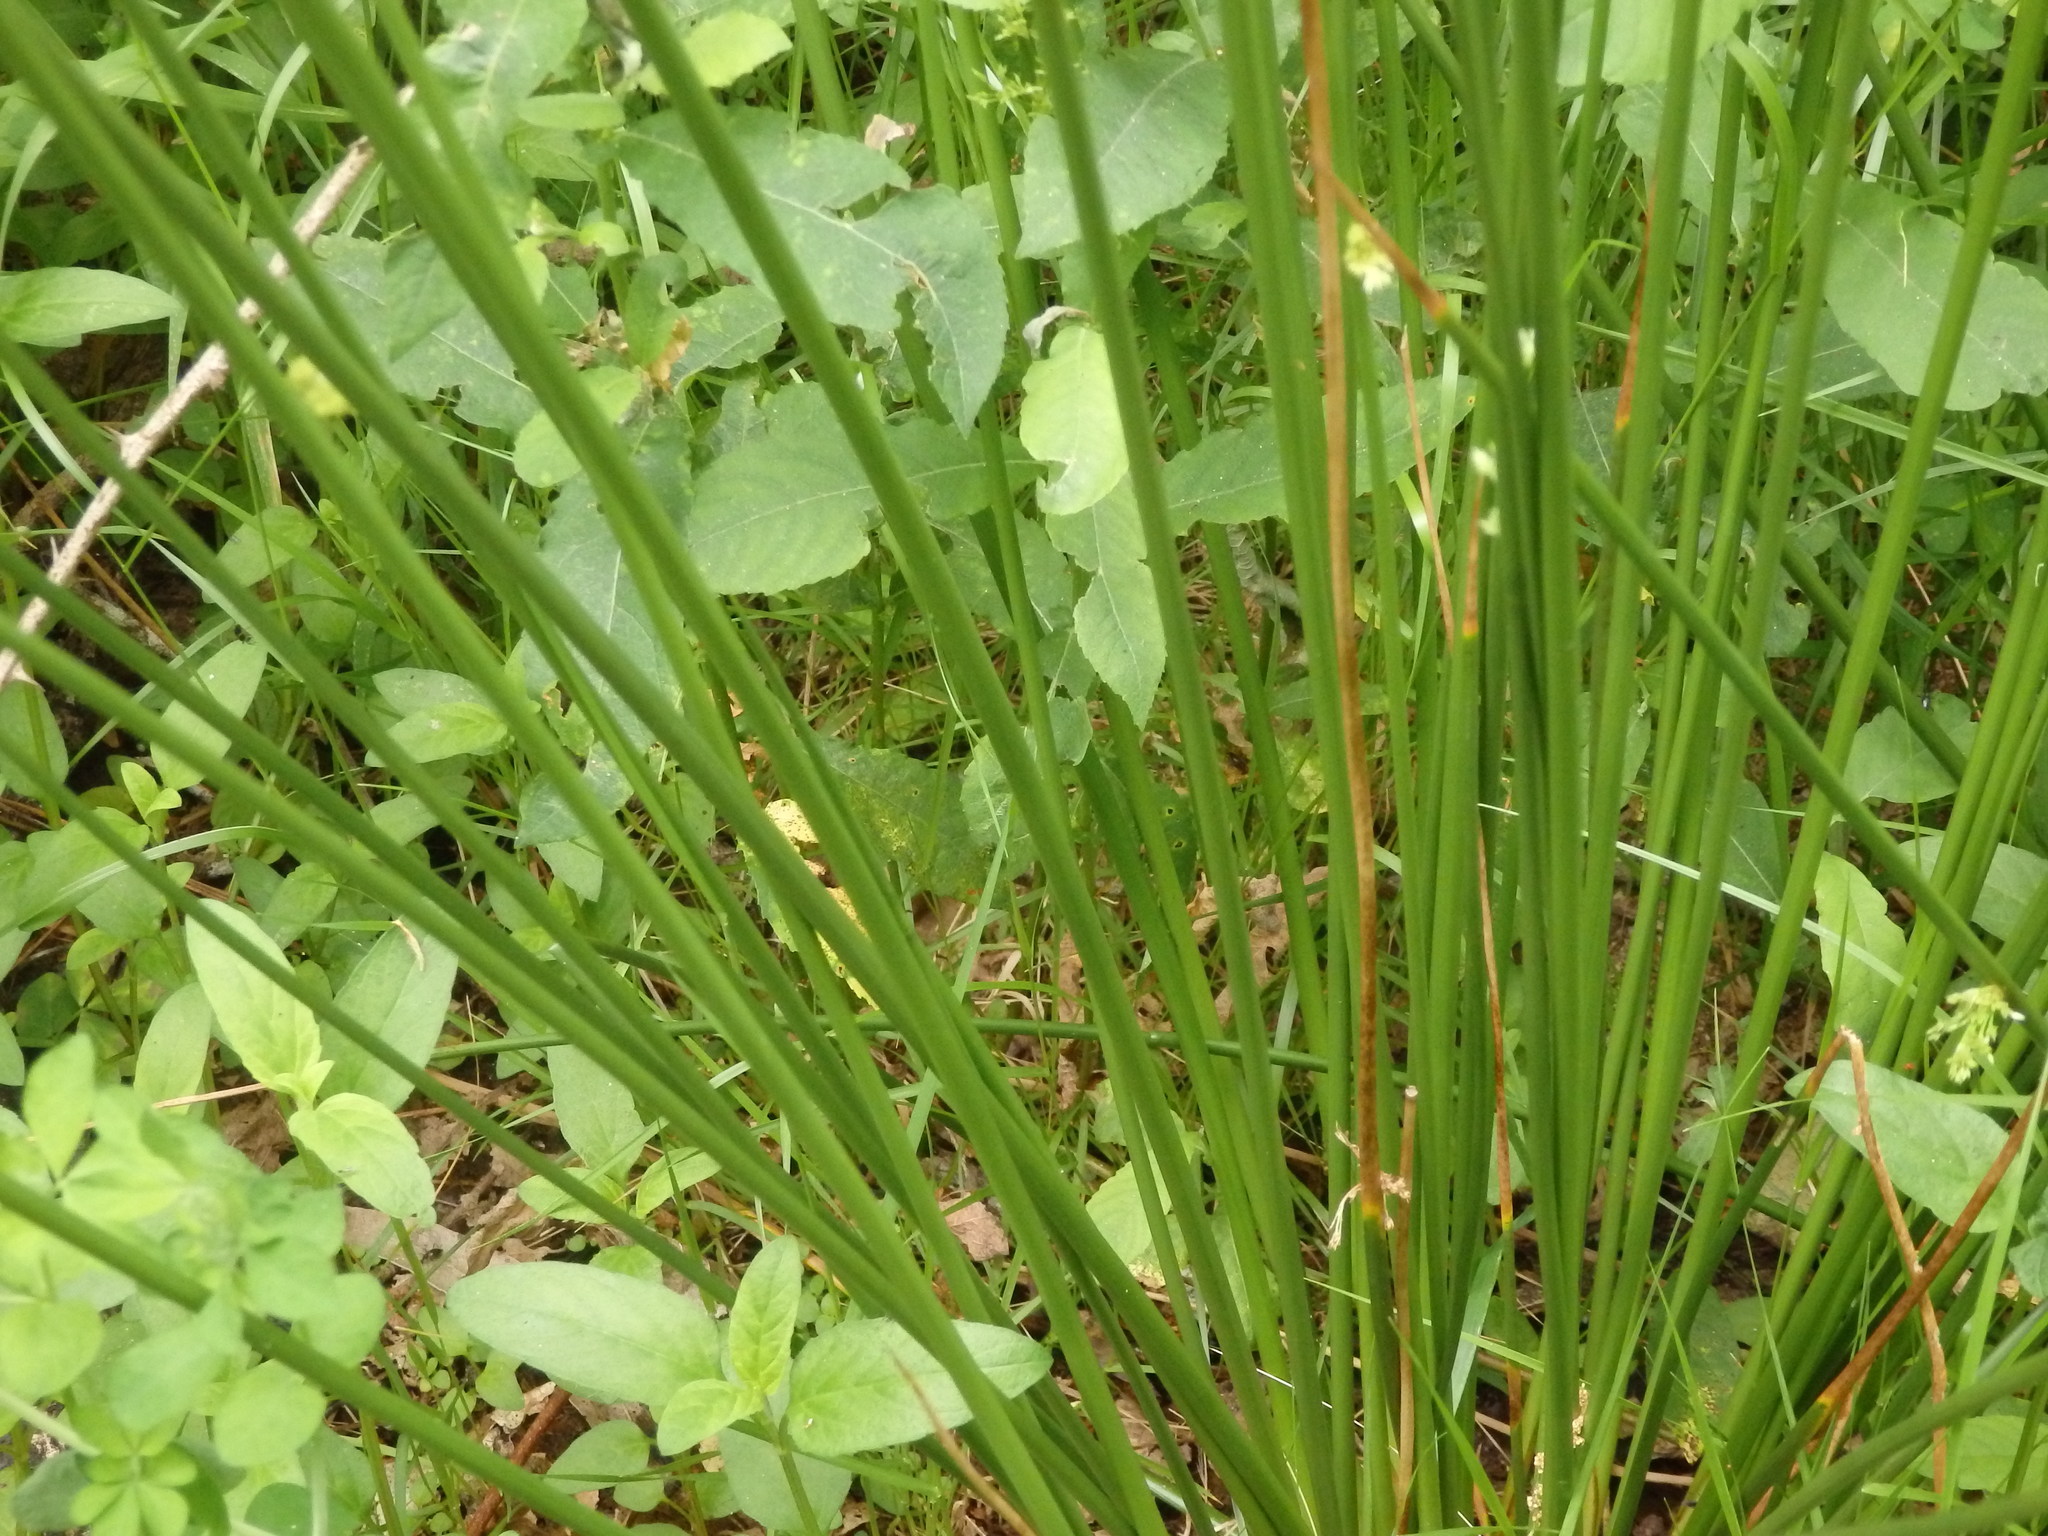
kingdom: Plantae
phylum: Tracheophyta
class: Liliopsida
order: Poales
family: Juncaceae
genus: Juncus
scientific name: Juncus effusus
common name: Soft rush
